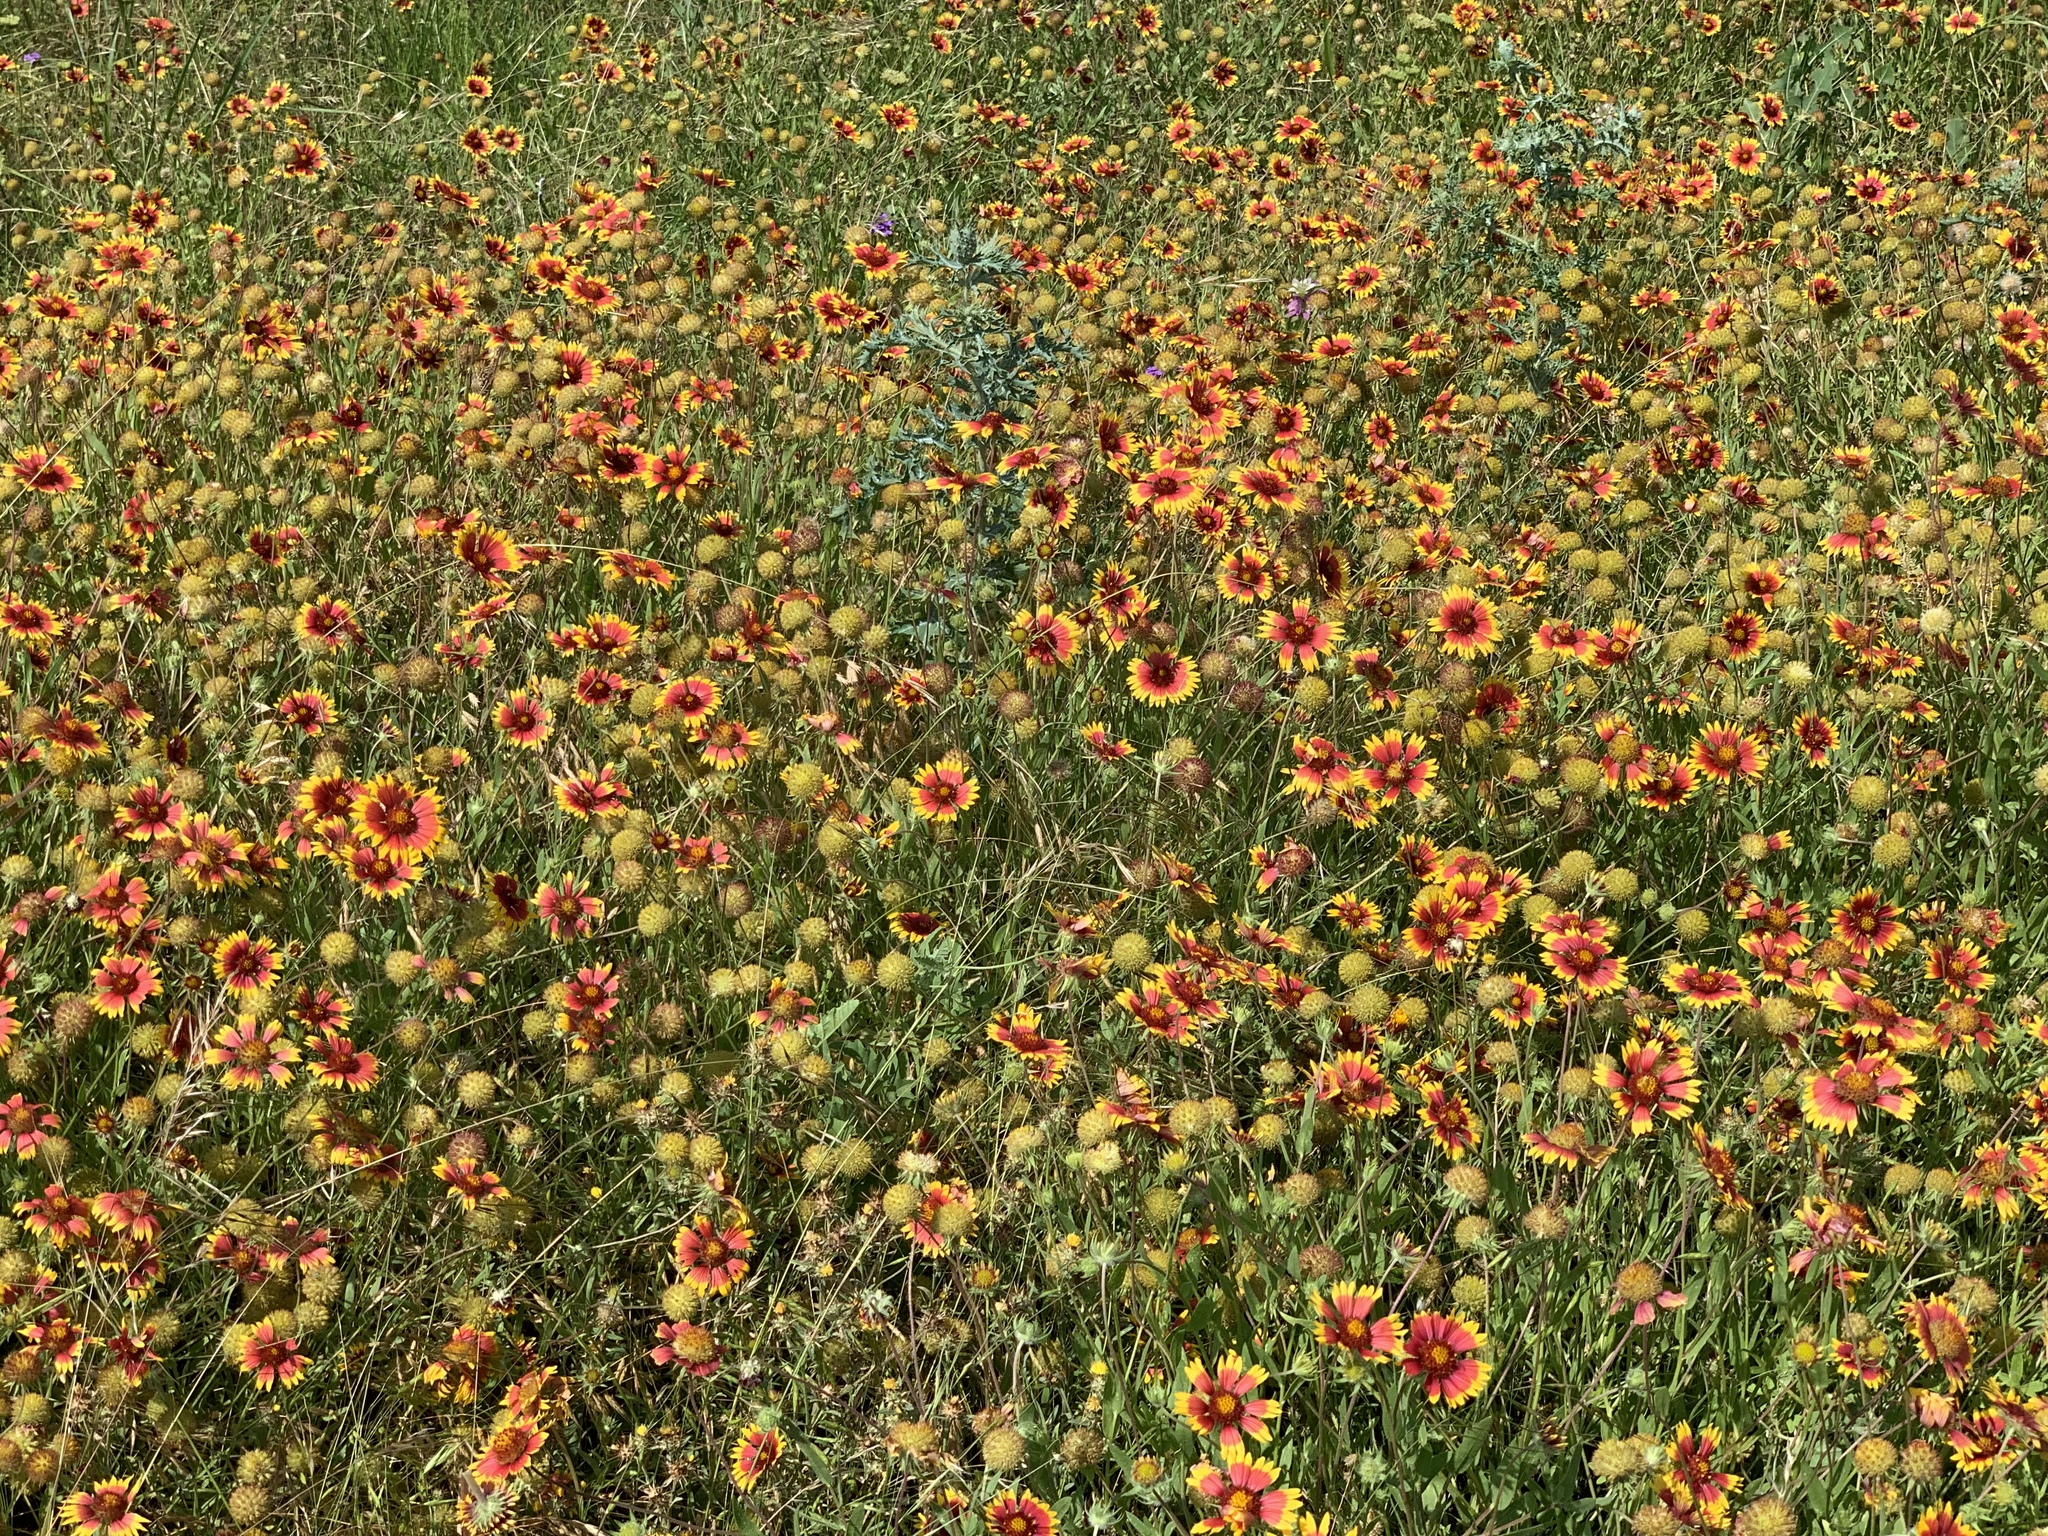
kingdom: Plantae
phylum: Tracheophyta
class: Magnoliopsida
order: Asterales
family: Asteraceae
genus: Gaillardia
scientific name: Gaillardia pulchella
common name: Firewheel
